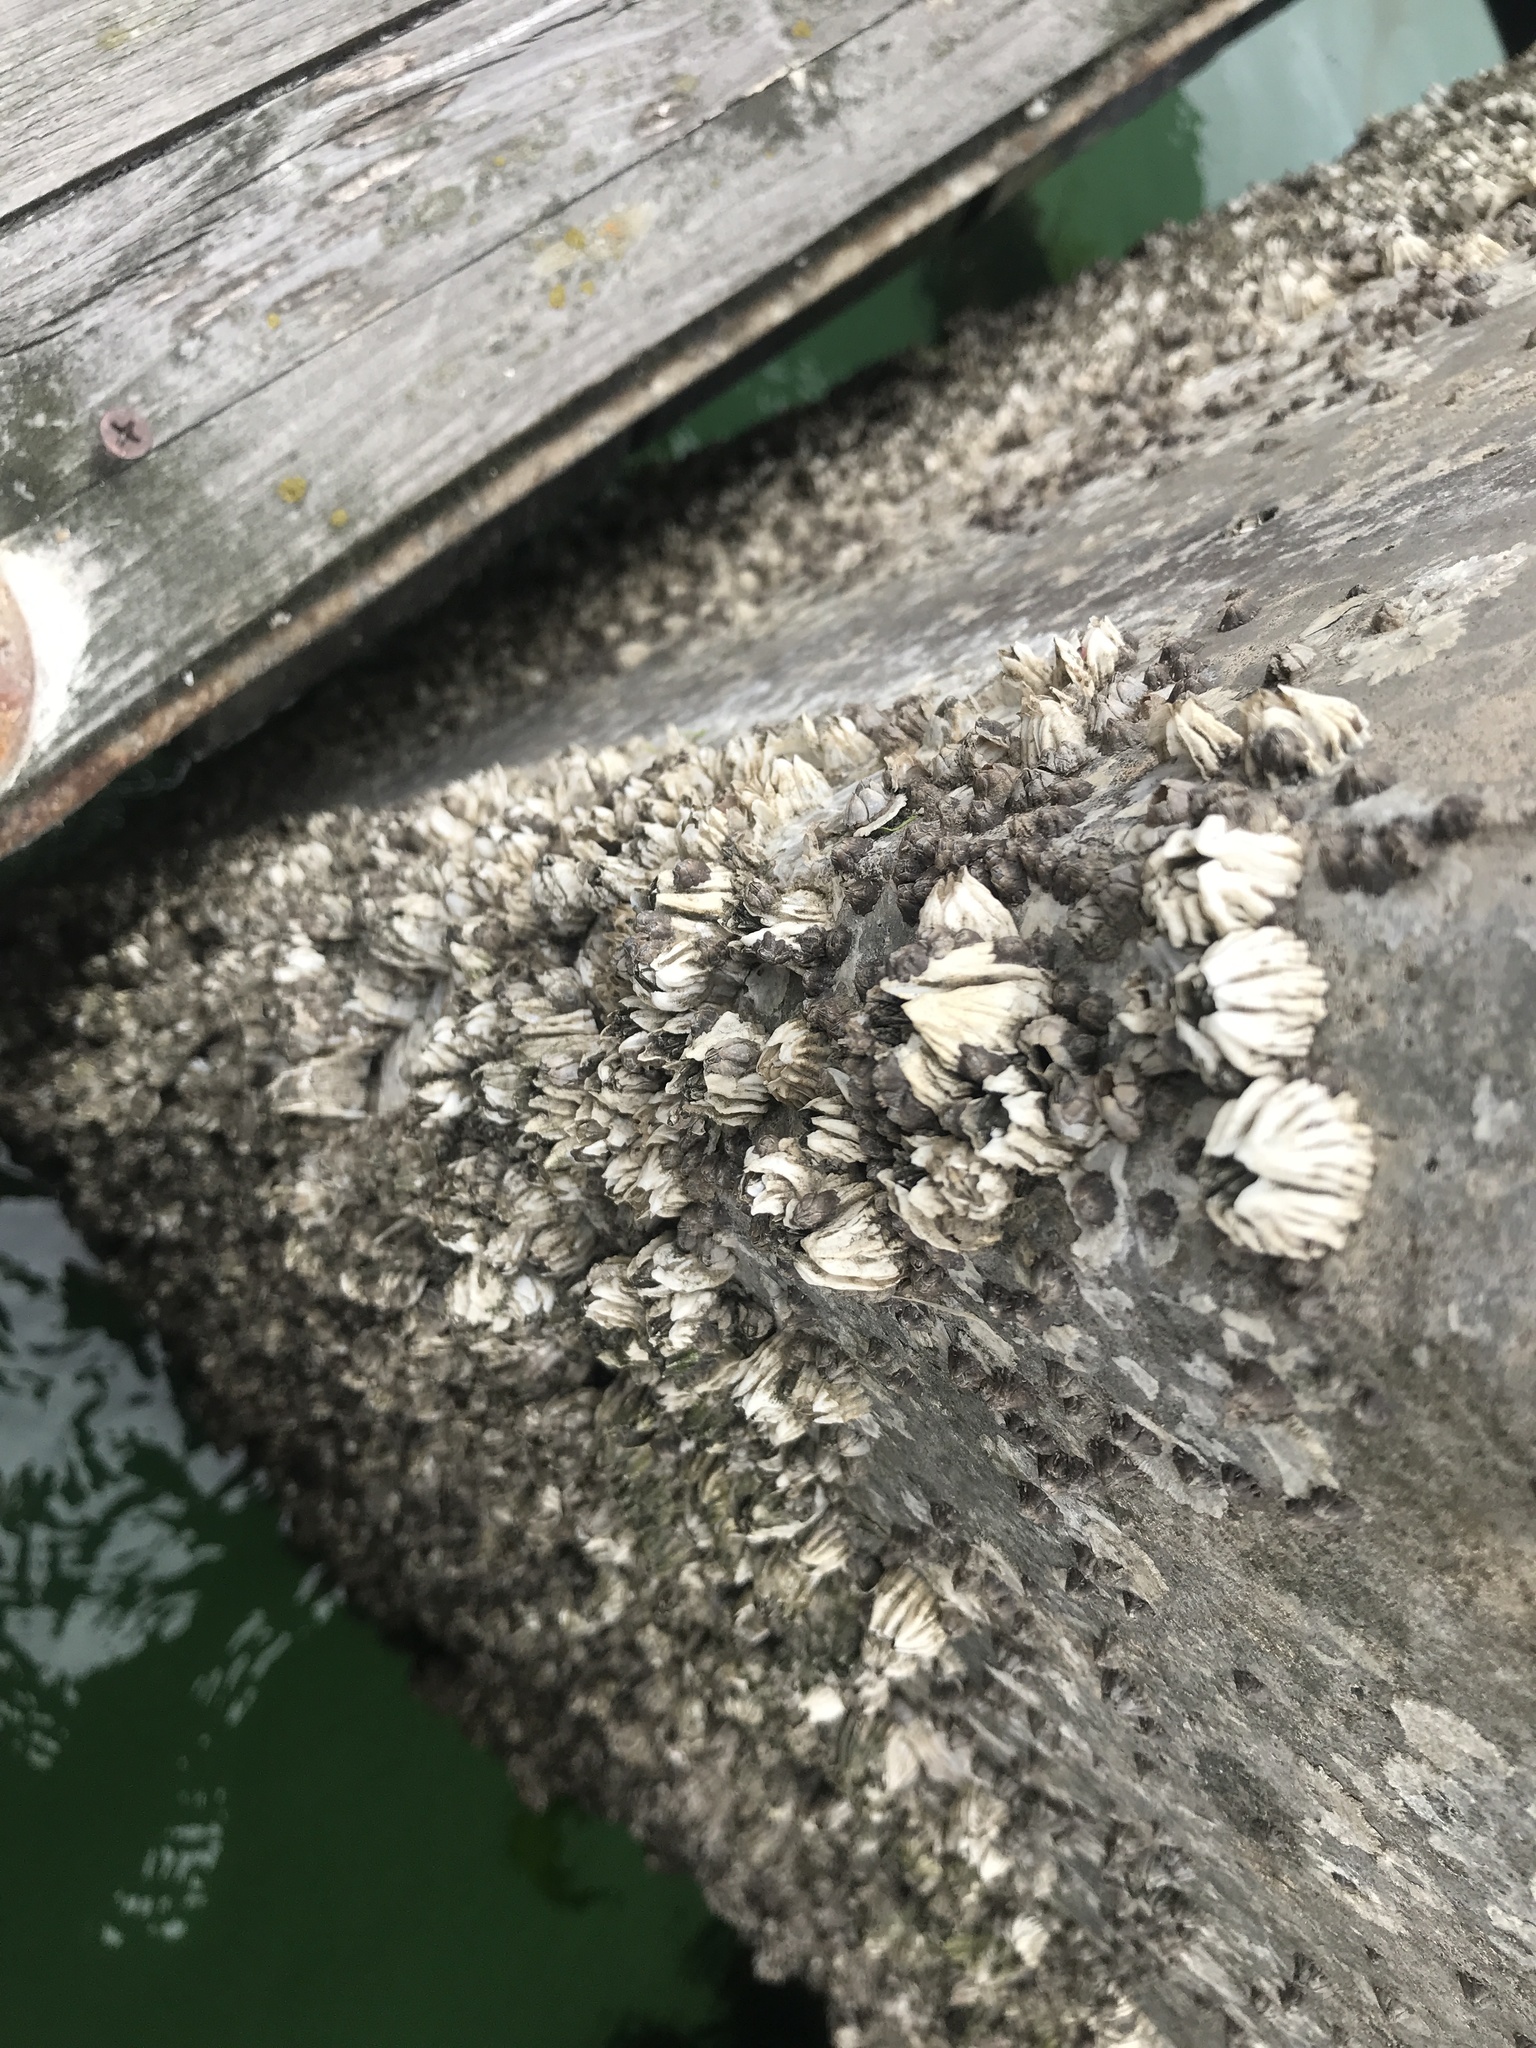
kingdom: Animalia
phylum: Arthropoda
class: Maxillopoda
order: Sessilia
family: Balanidae
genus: Balanus
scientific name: Balanus glandula
